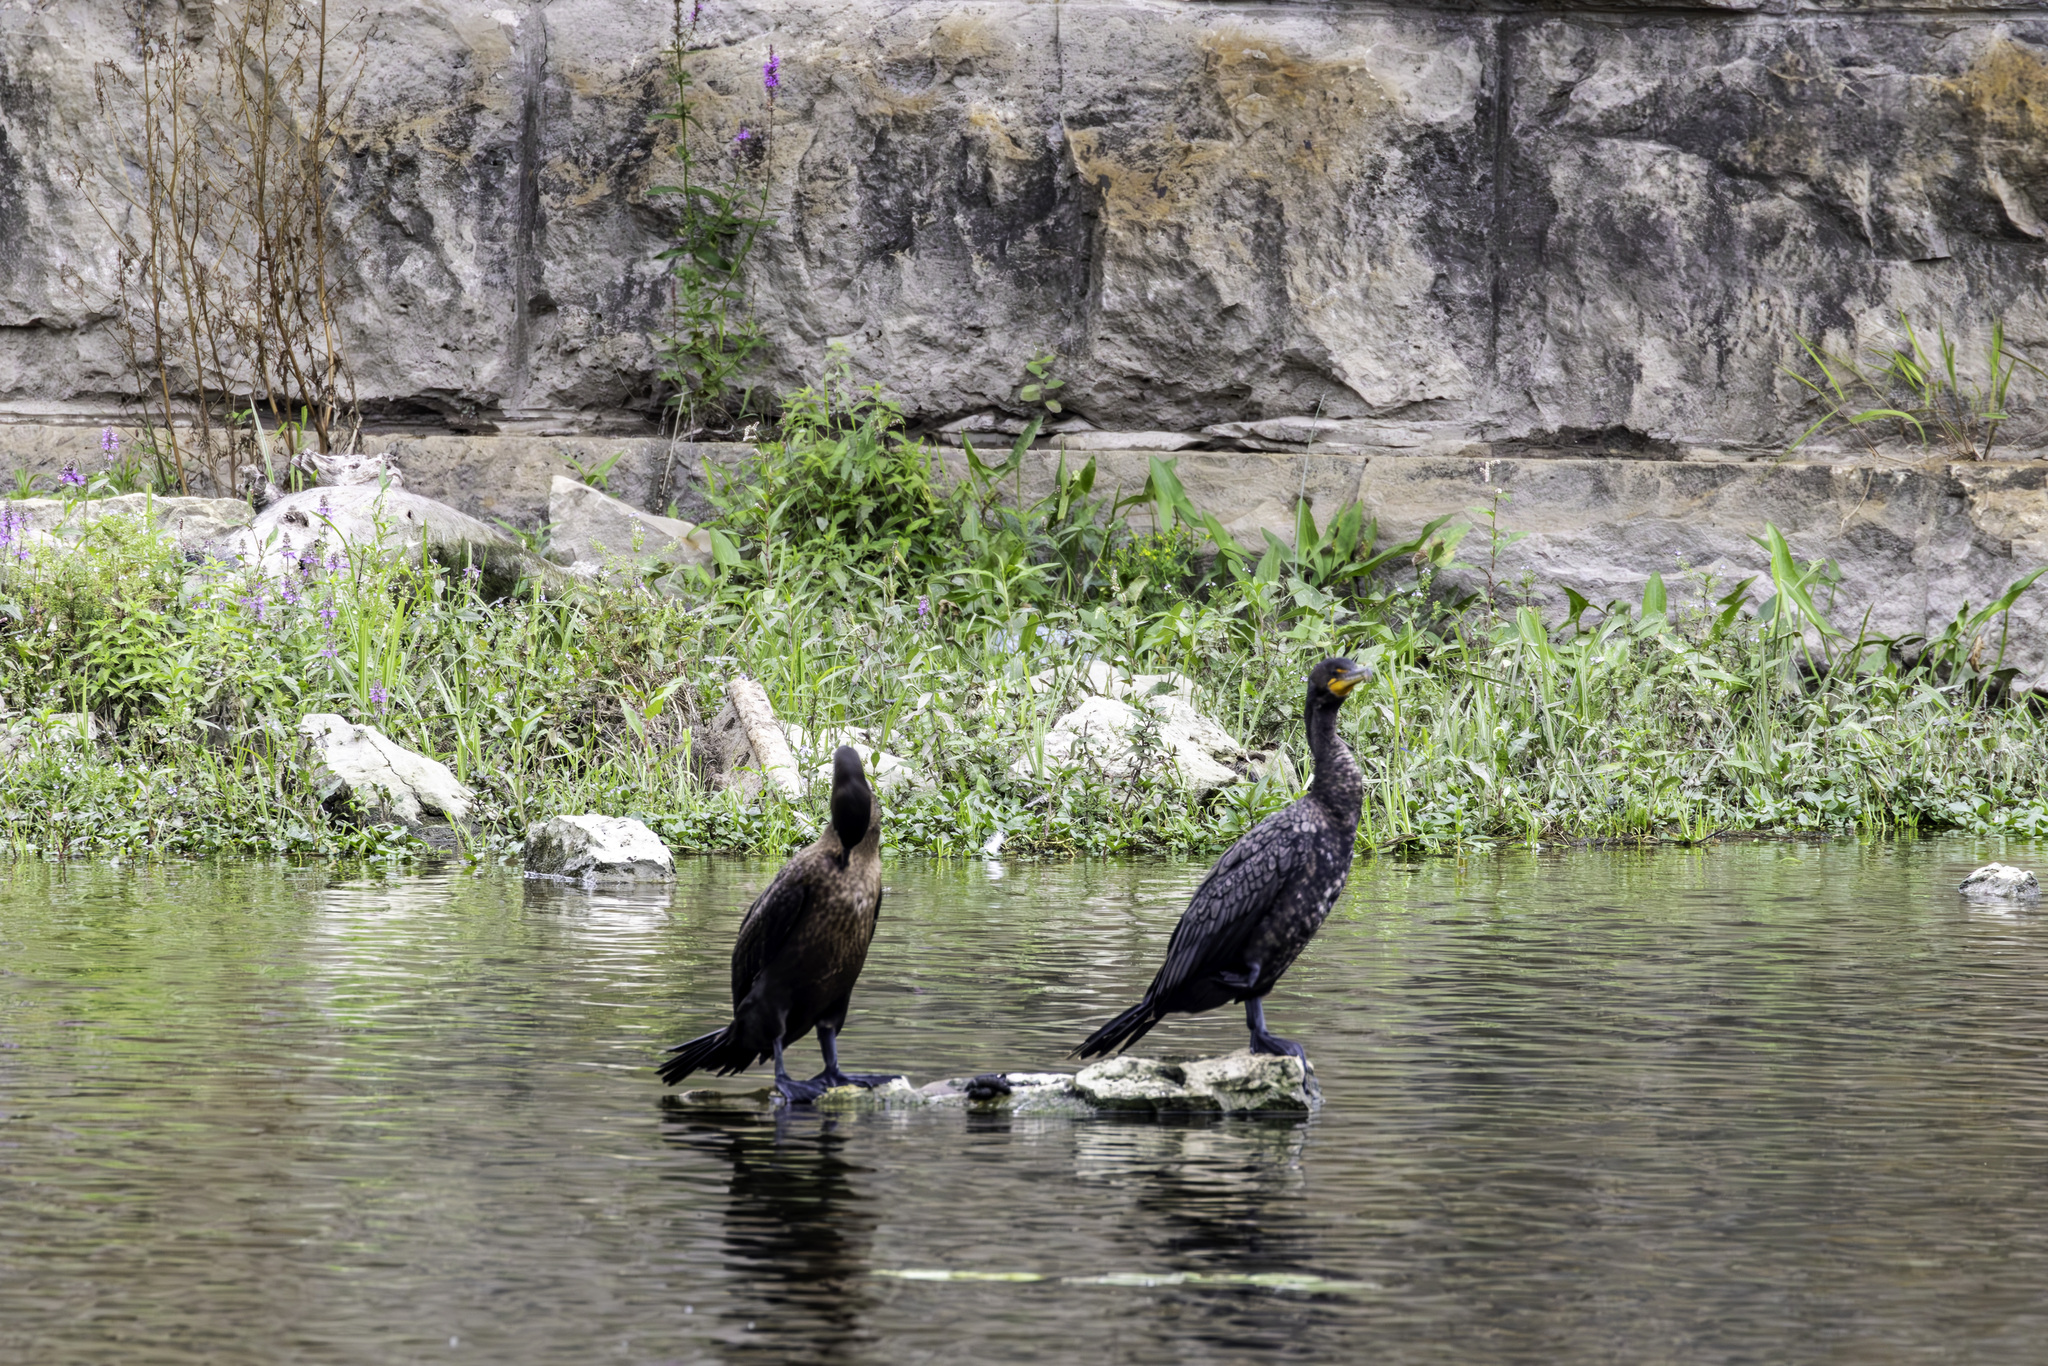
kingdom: Animalia
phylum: Chordata
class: Aves
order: Suliformes
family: Phalacrocoracidae
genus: Phalacrocorax
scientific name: Phalacrocorax auritus
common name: Double-crested cormorant
